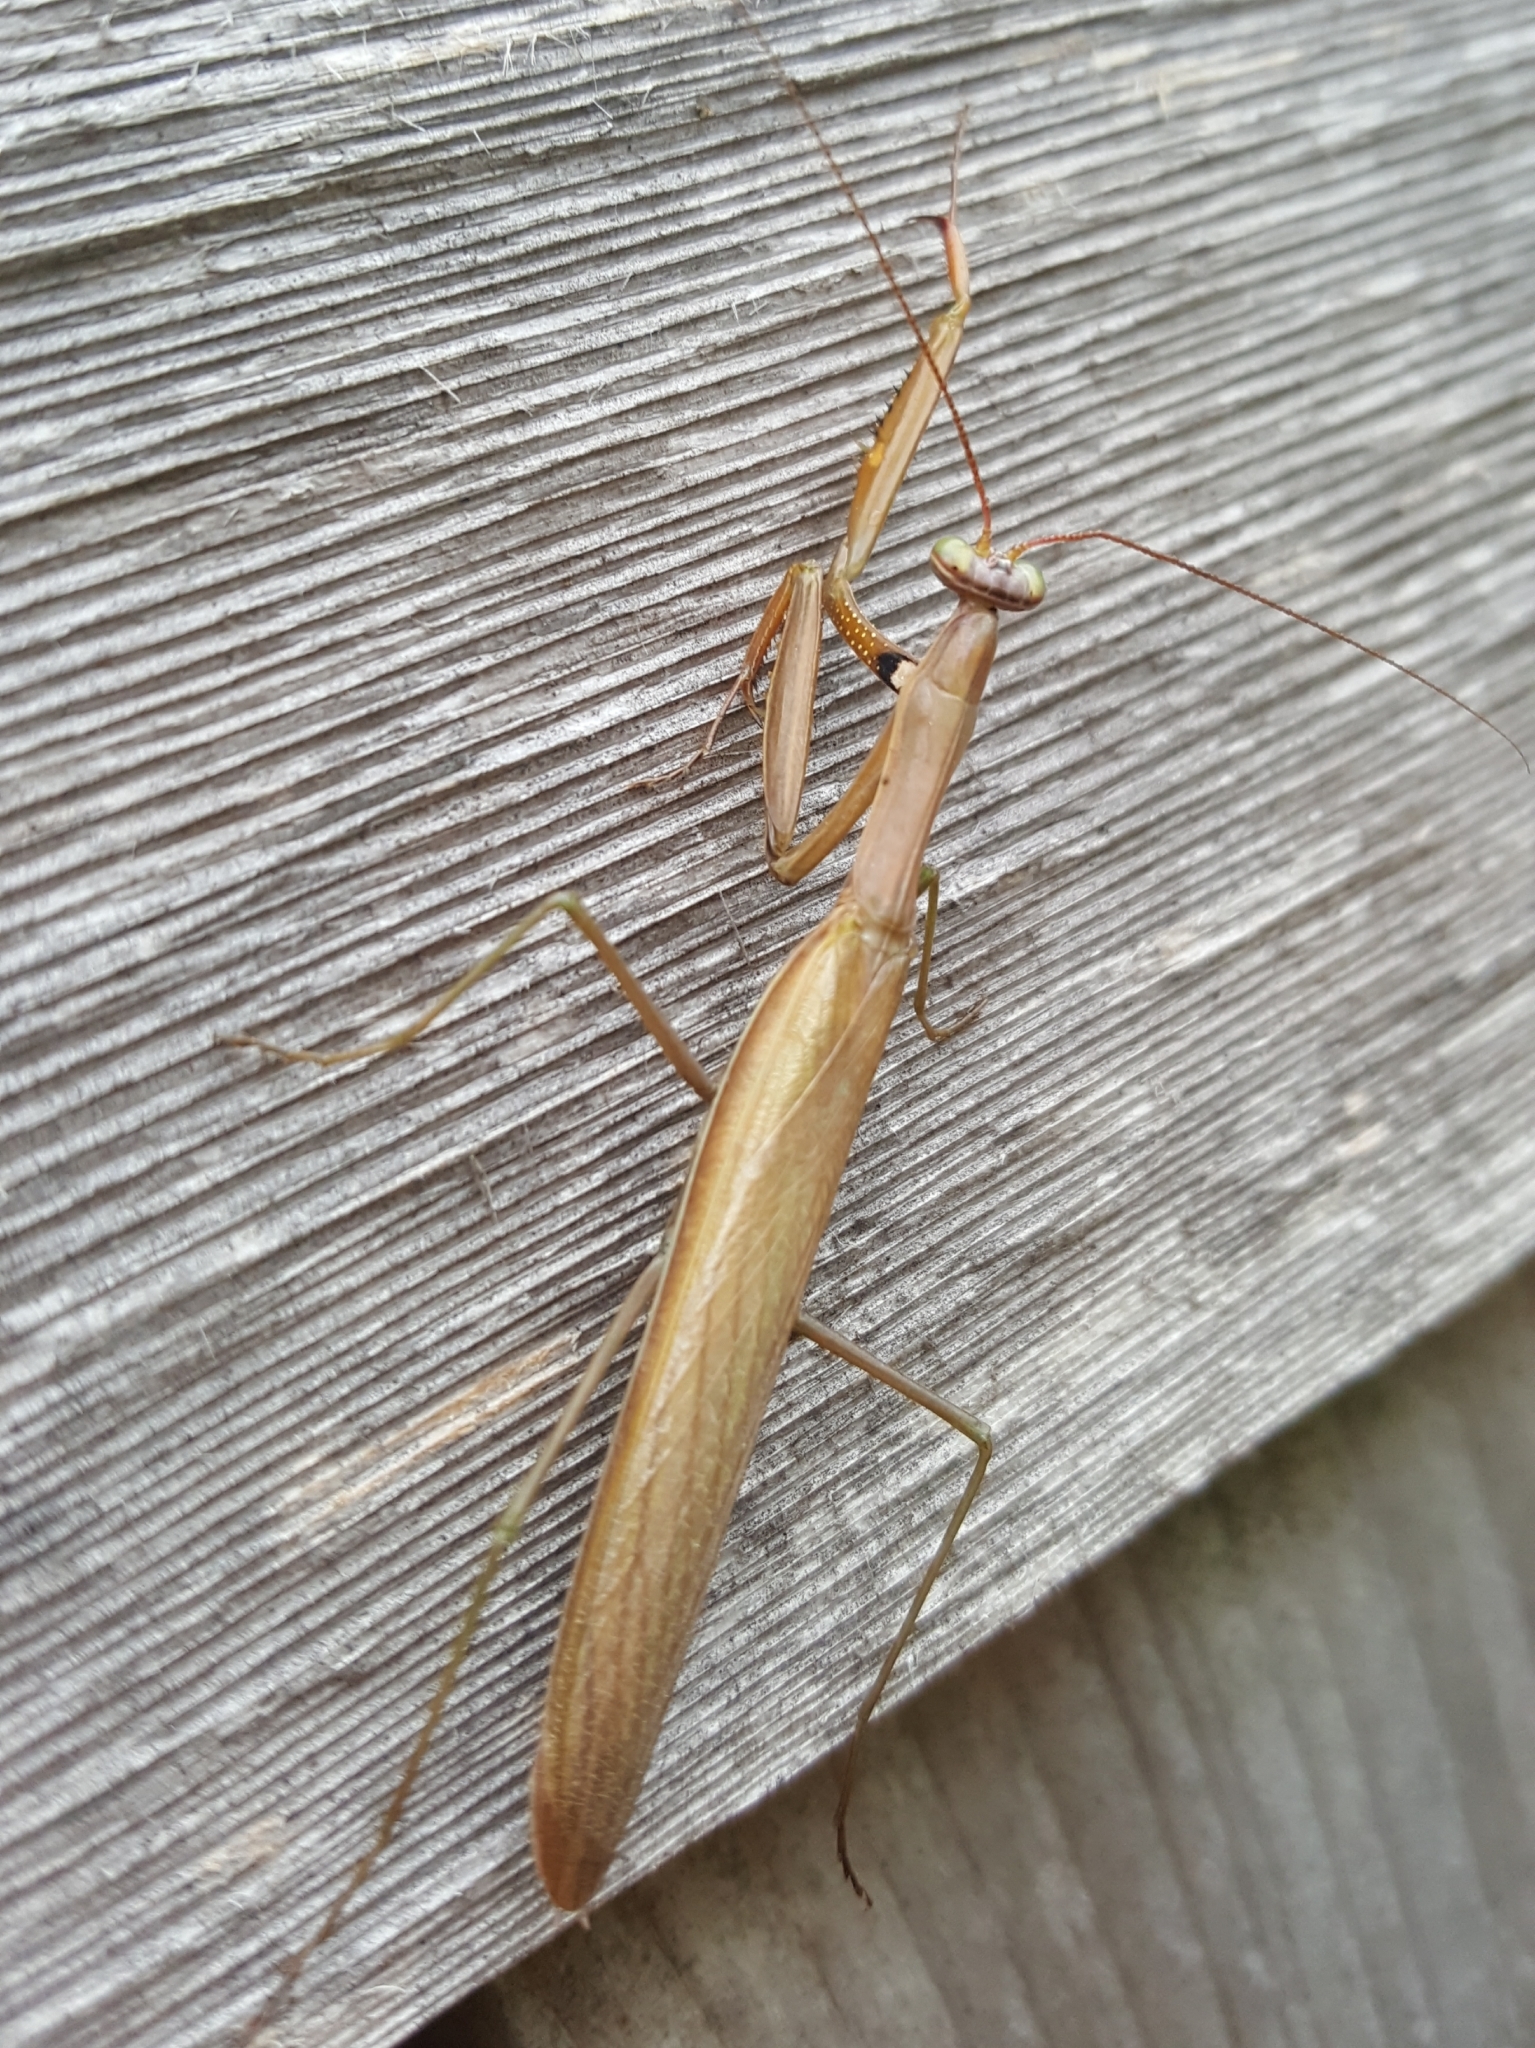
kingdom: Animalia
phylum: Arthropoda
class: Insecta
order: Mantodea
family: Mantidae
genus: Mantis
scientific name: Mantis religiosa
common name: Praying mantis
